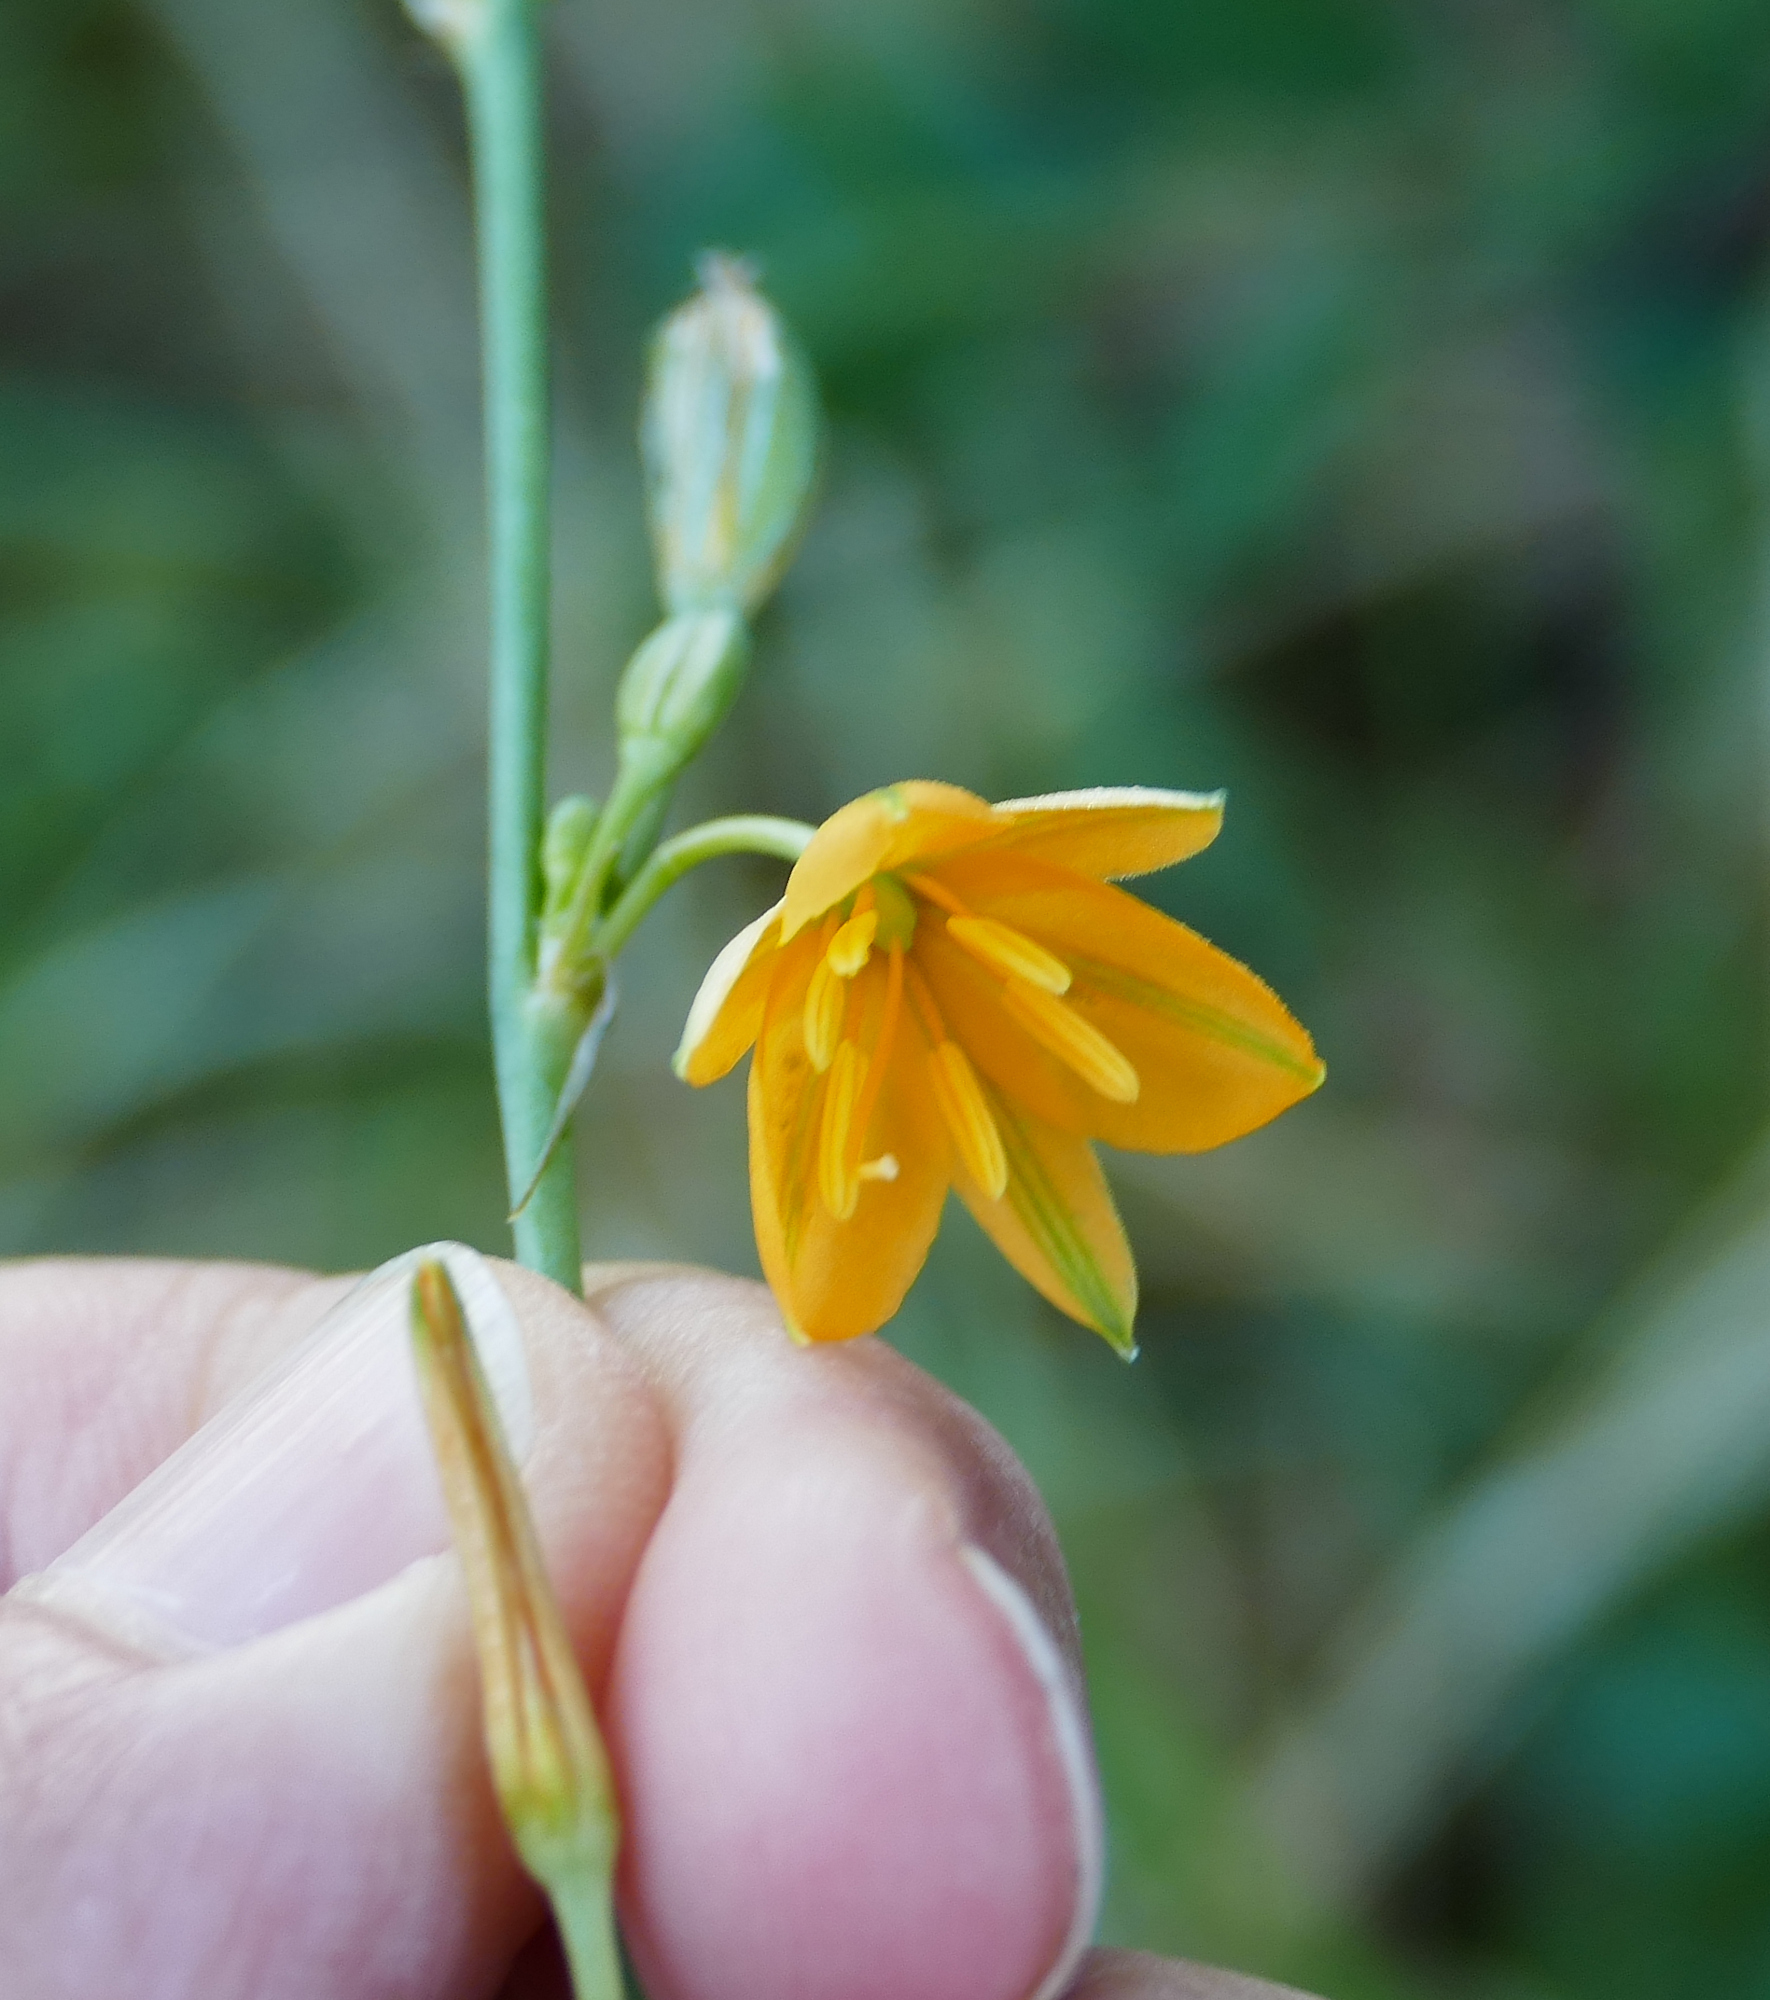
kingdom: Plantae
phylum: Tracheophyta
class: Liliopsida
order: Asparagales
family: Asparagaceae
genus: Echeandia
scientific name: Echeandia flavescens
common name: Amberlily
